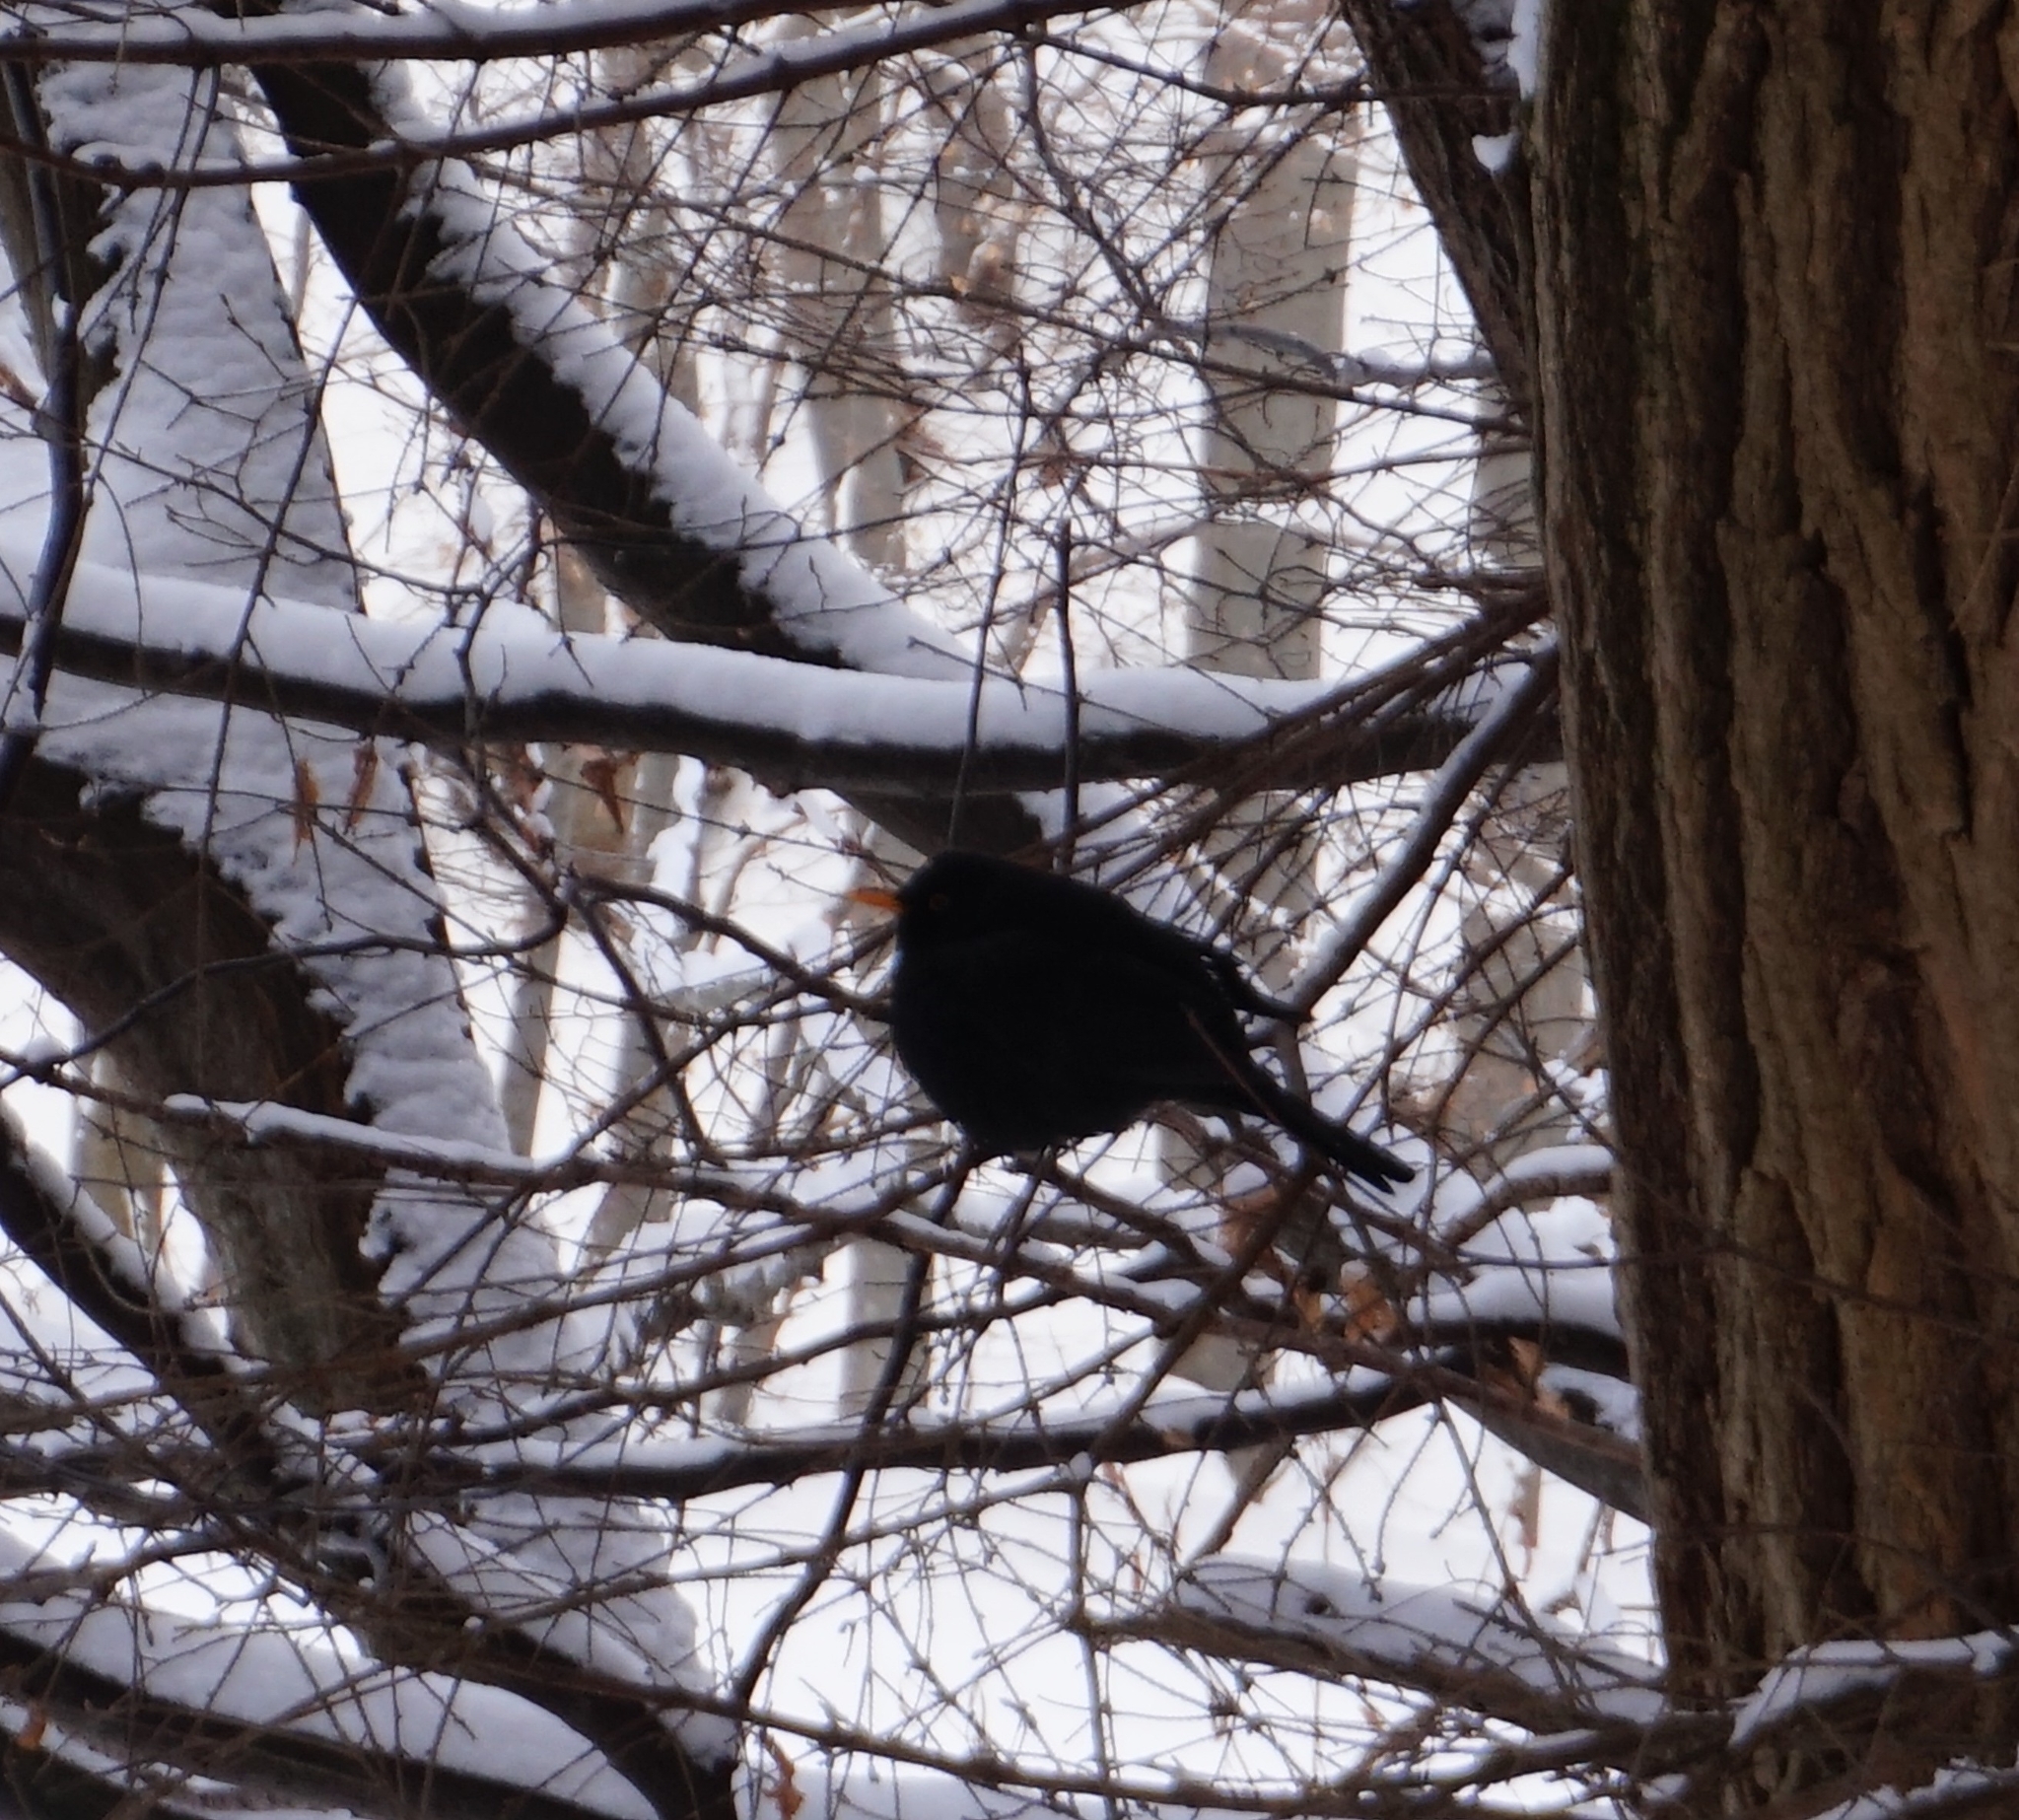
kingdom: Animalia
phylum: Chordata
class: Aves
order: Passeriformes
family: Turdidae
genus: Turdus
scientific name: Turdus merula
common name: Common blackbird
